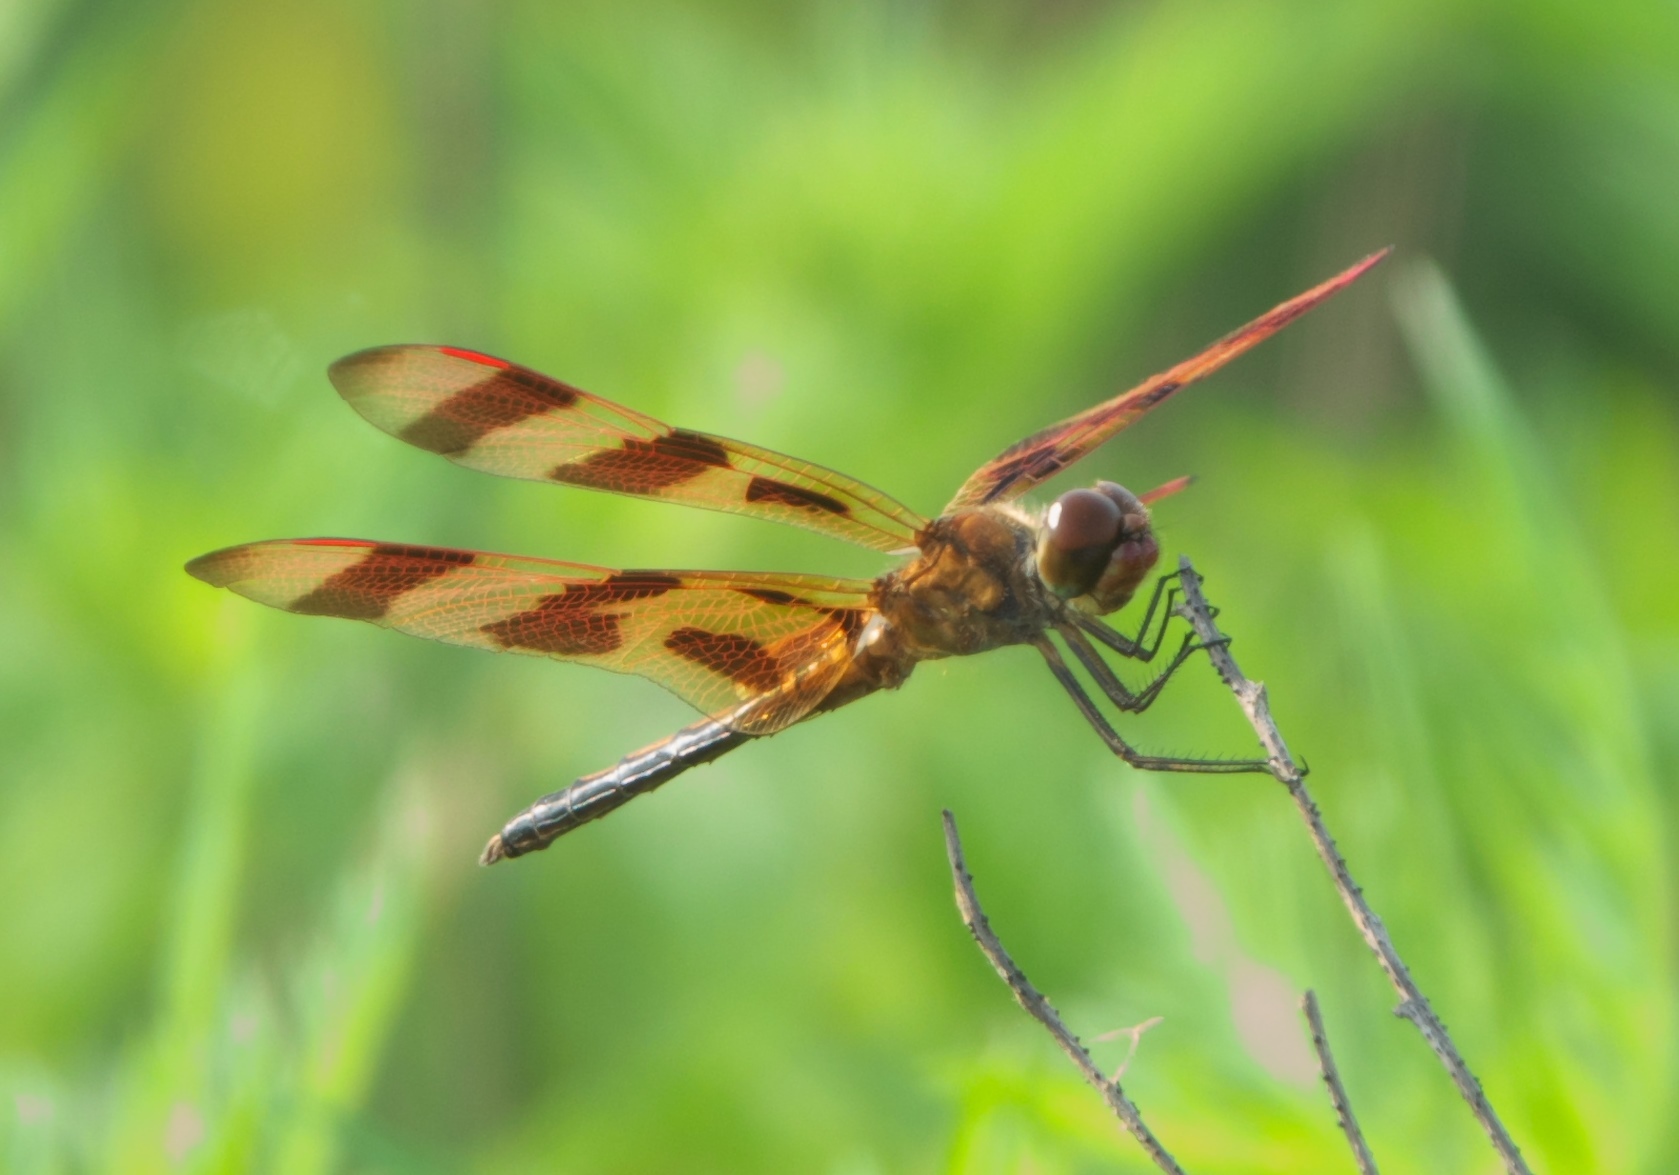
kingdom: Animalia
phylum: Arthropoda
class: Insecta
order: Odonata
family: Libellulidae
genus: Celithemis
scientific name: Celithemis eponina
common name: Halloween pennant
